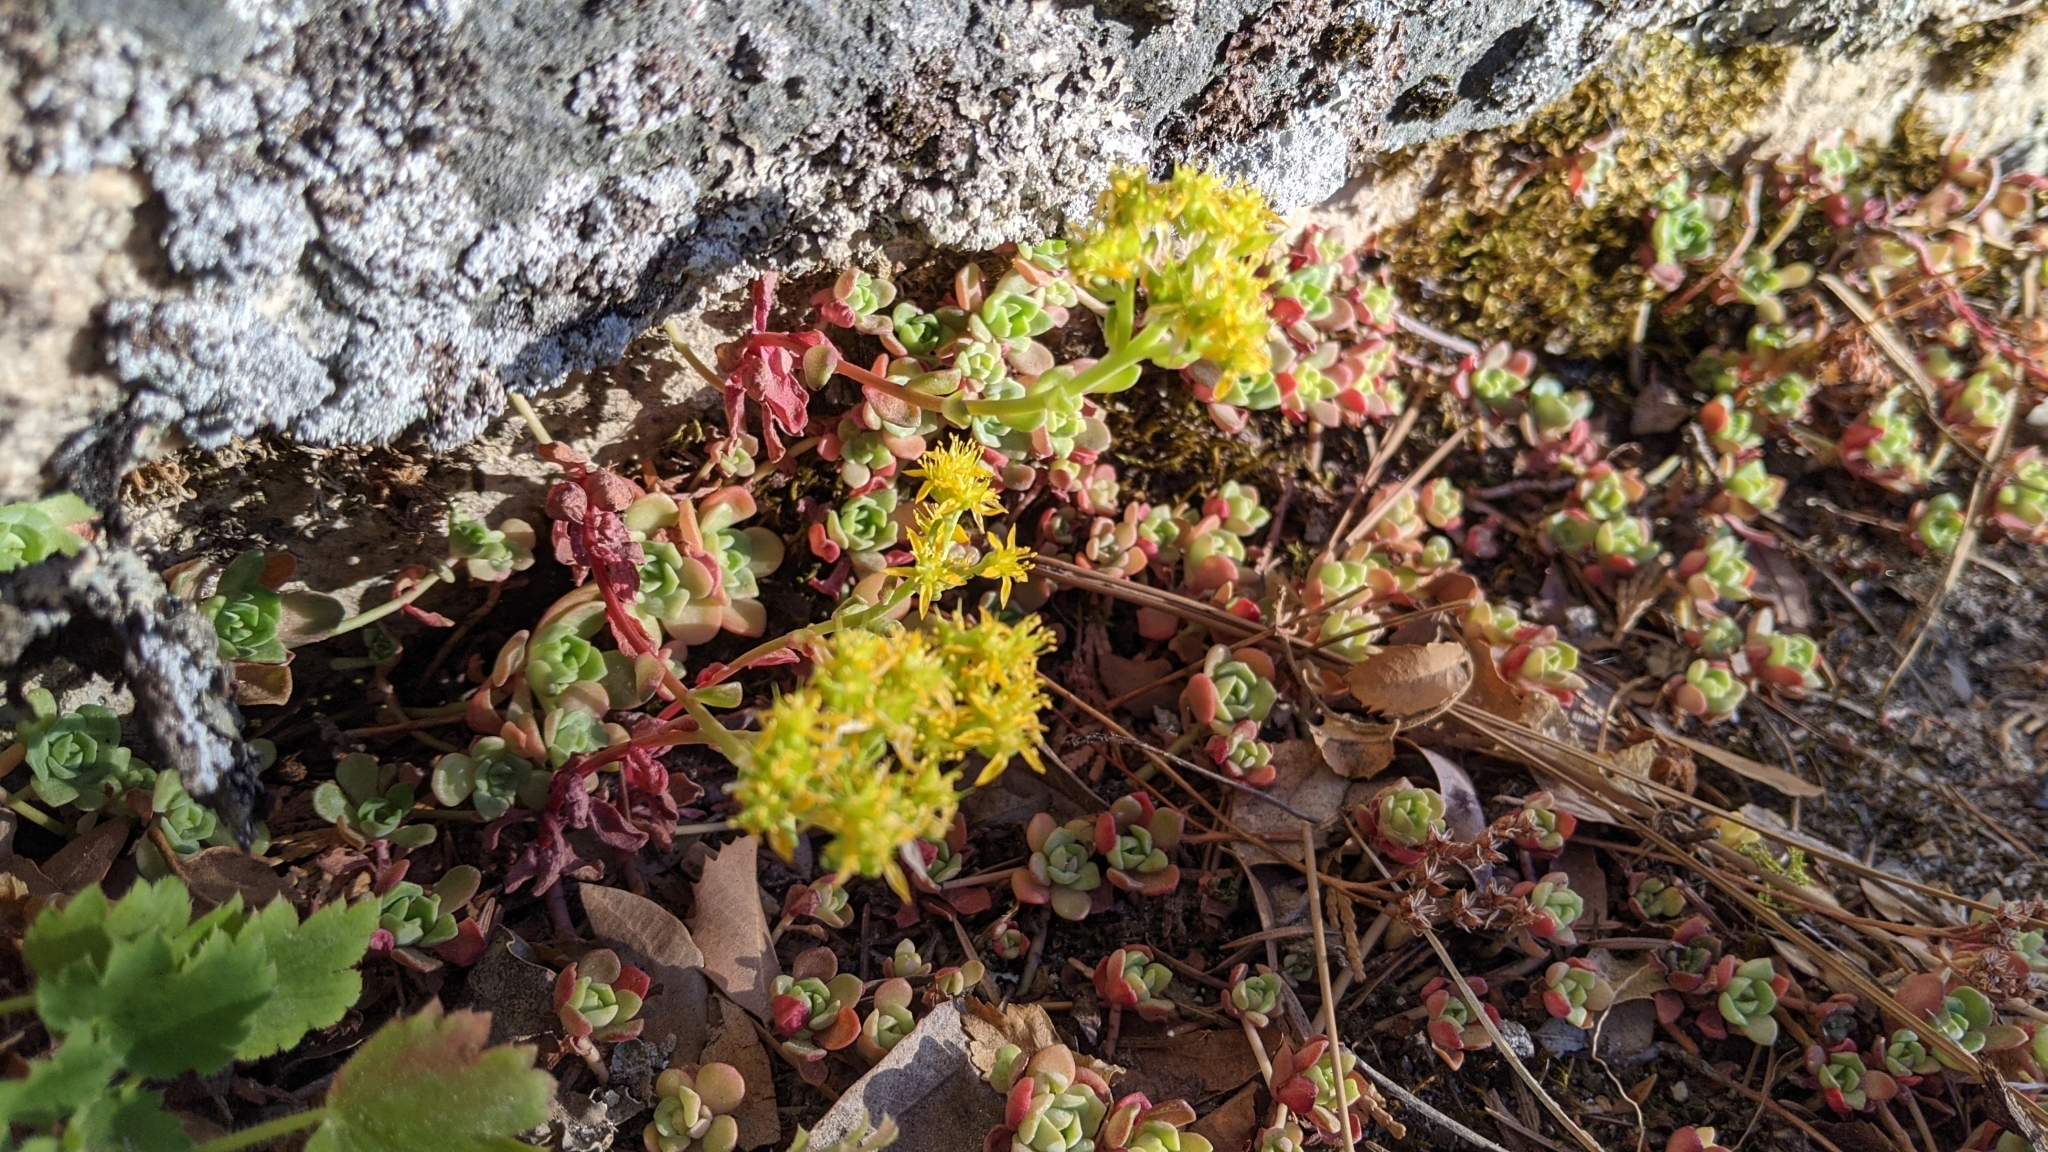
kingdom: Plantae
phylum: Tracheophyta
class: Magnoliopsida
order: Saxifragales
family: Crassulaceae
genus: Sedum
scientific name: Sedum spathulifolium
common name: Colorado stonecrop
